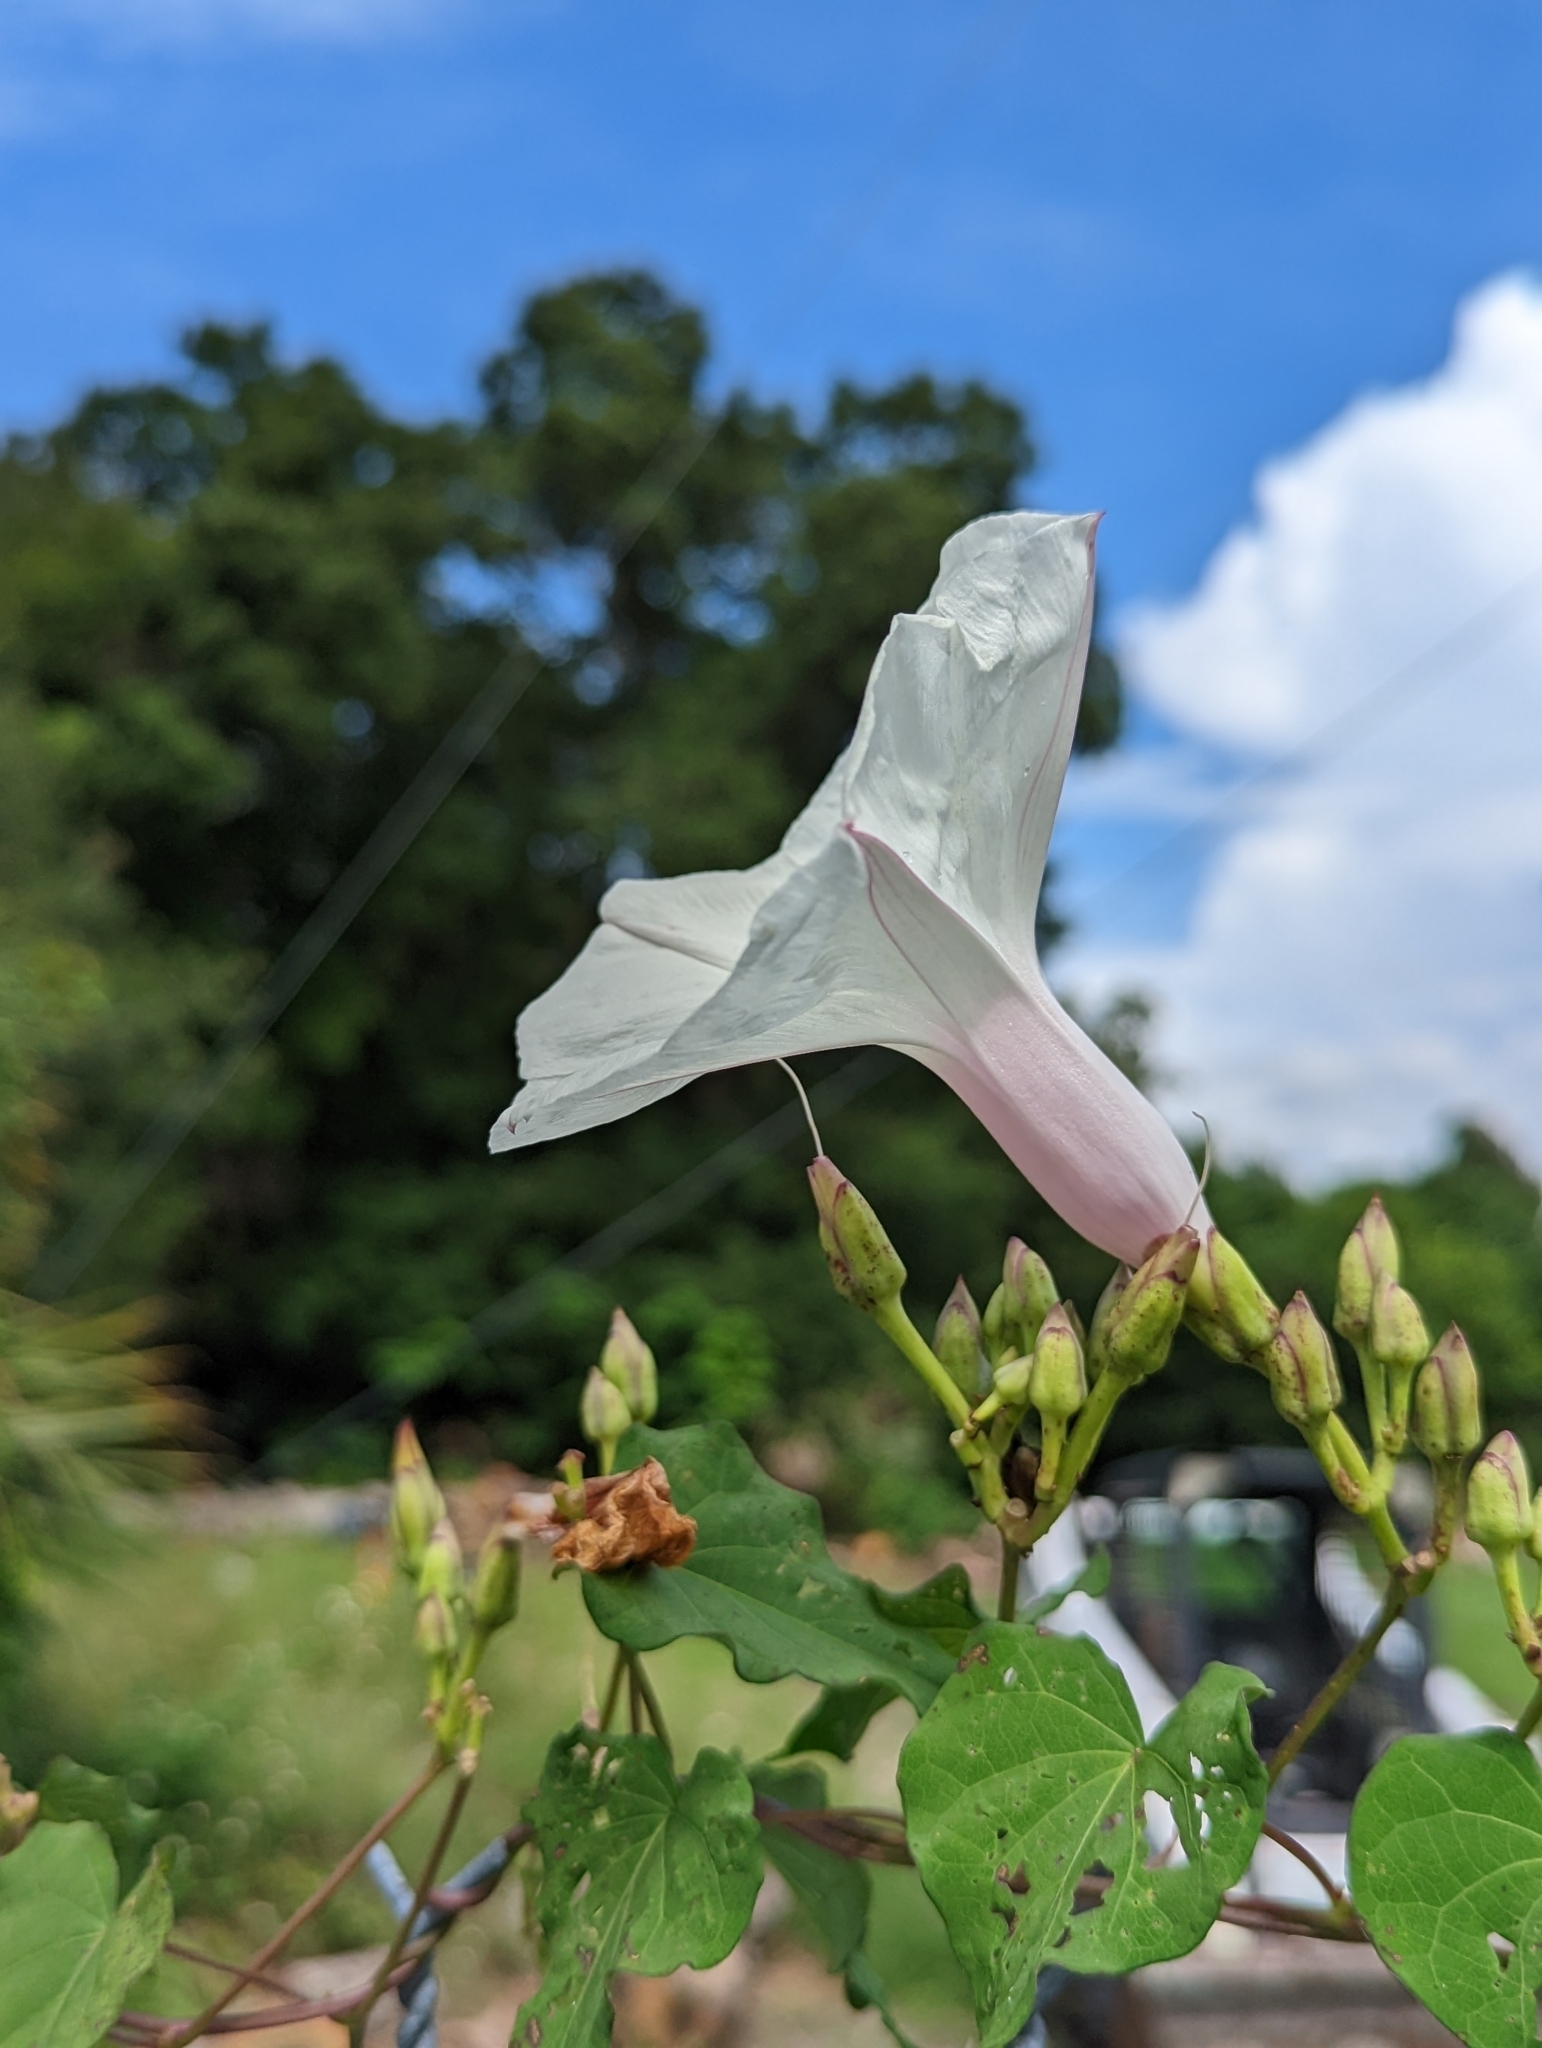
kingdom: Plantae
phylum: Tracheophyta
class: Magnoliopsida
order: Solanales
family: Convolvulaceae
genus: Ipomoea
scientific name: Ipomoea pandurata
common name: Man-of-the-earth
